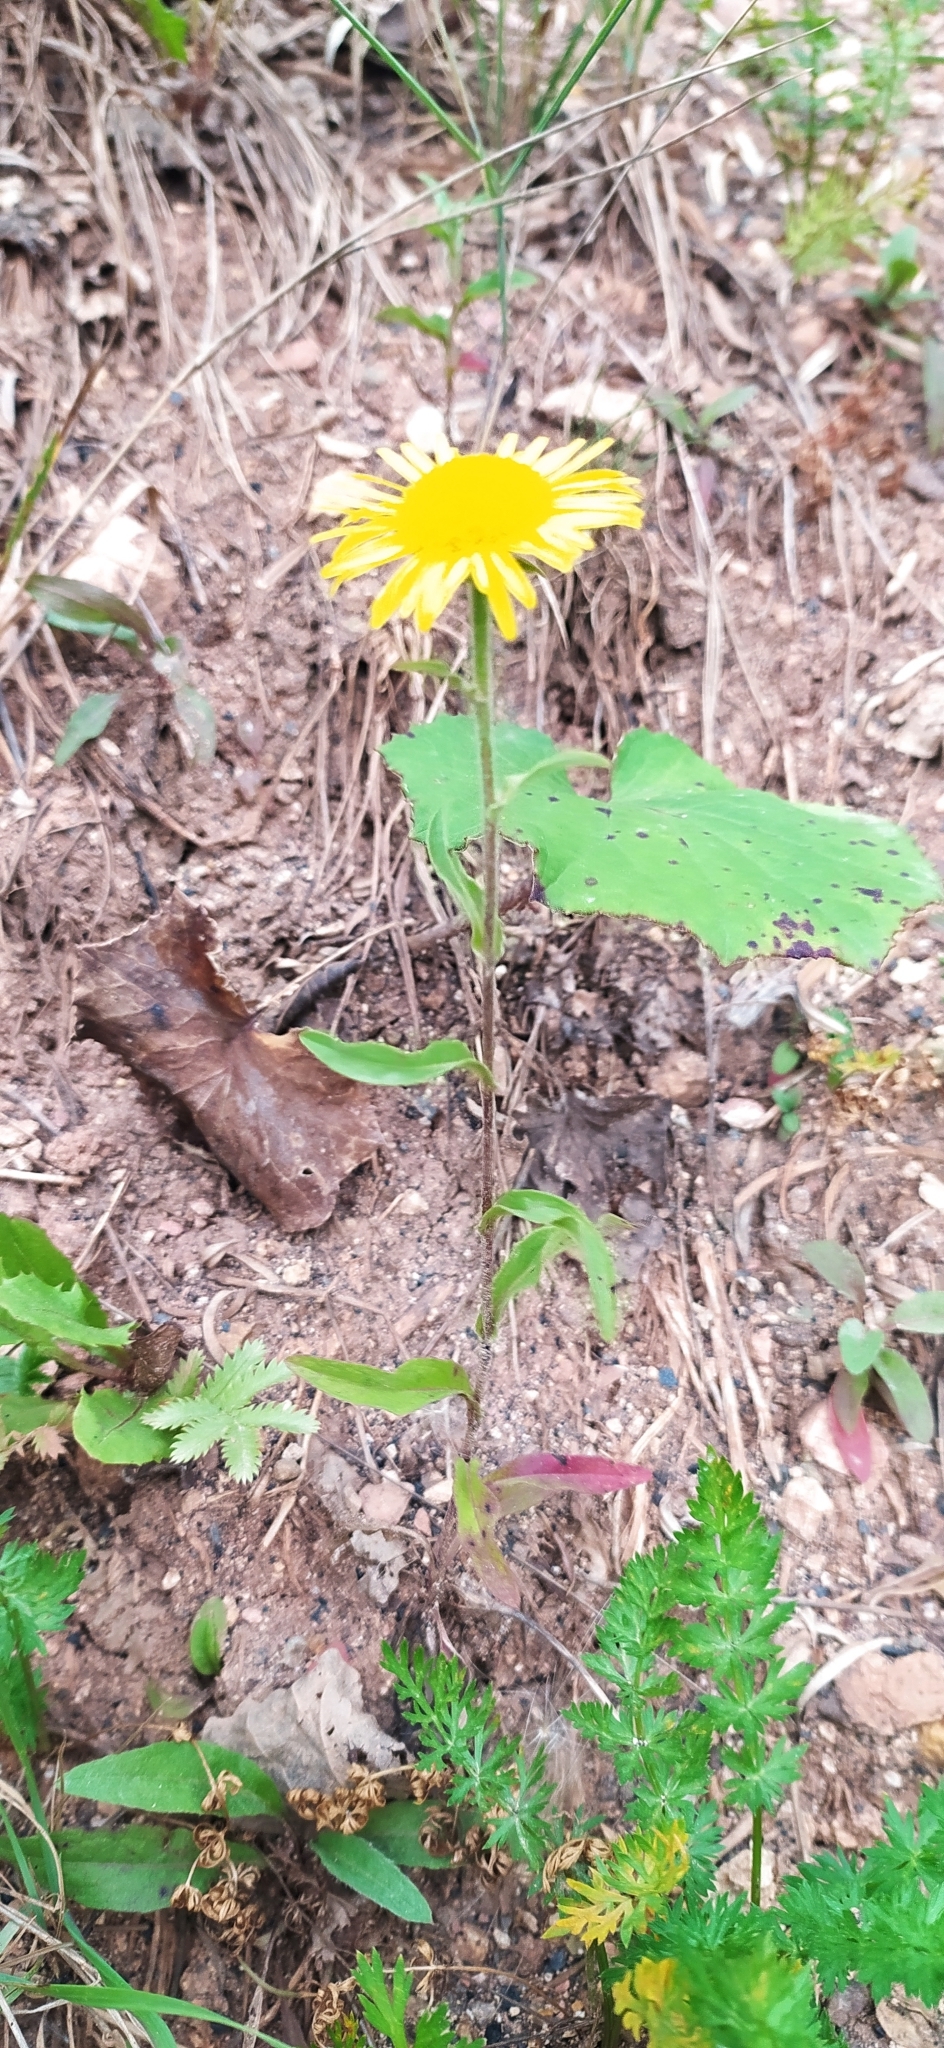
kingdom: Plantae
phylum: Tracheophyta
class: Magnoliopsida
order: Asterales
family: Asteraceae
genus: Pentanema
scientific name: Pentanema britannicum
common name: British elecampane
